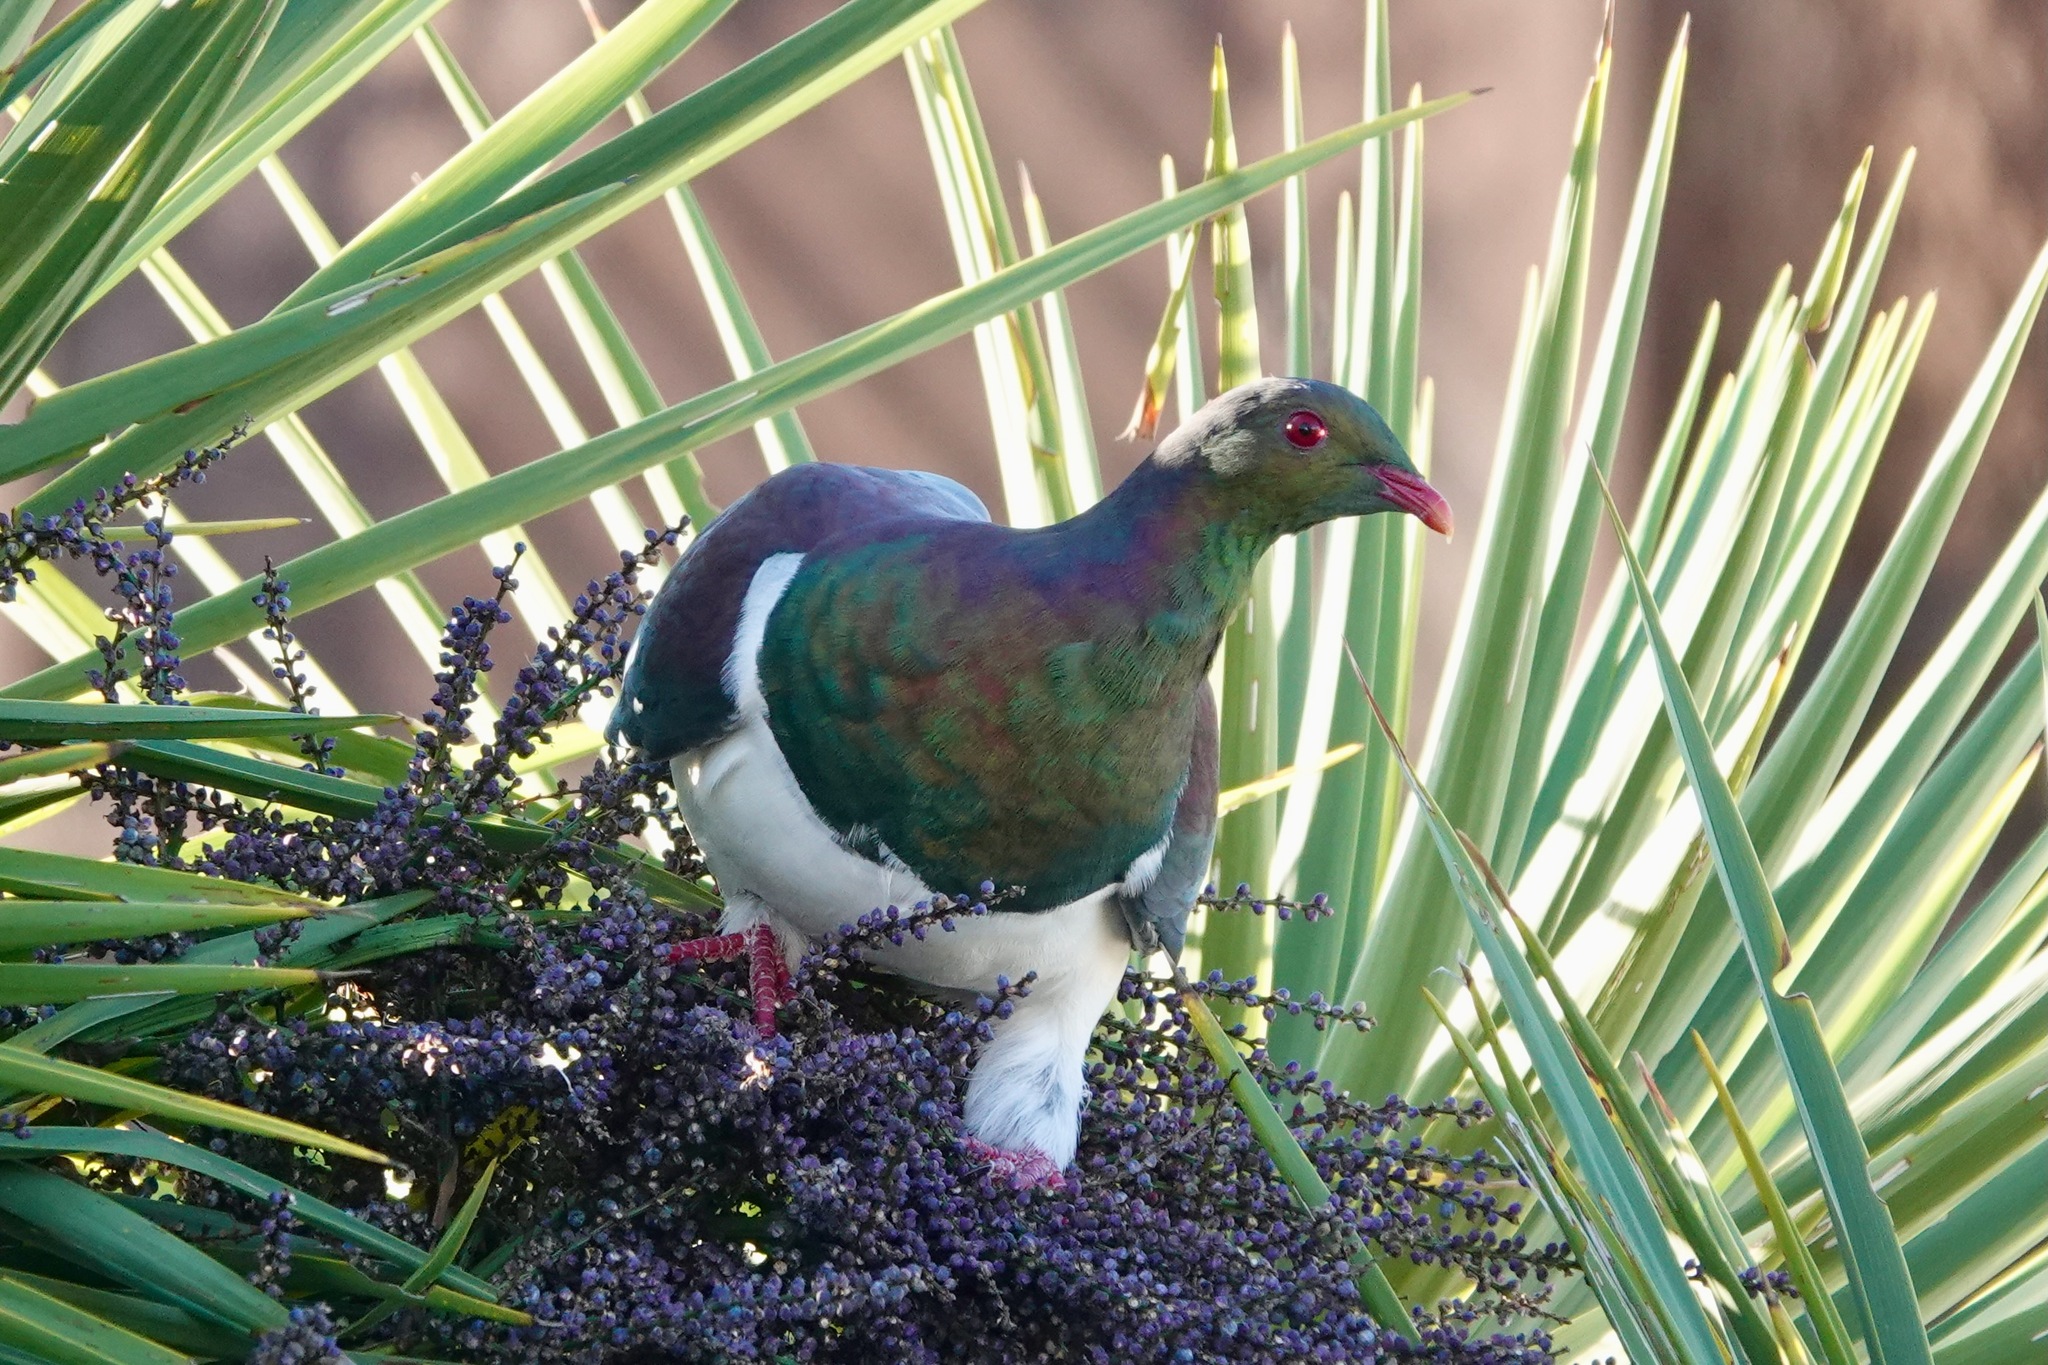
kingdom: Animalia
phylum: Chordata
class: Aves
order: Columbiformes
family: Columbidae
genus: Hemiphaga
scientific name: Hemiphaga novaeseelandiae
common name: New zealand pigeon
